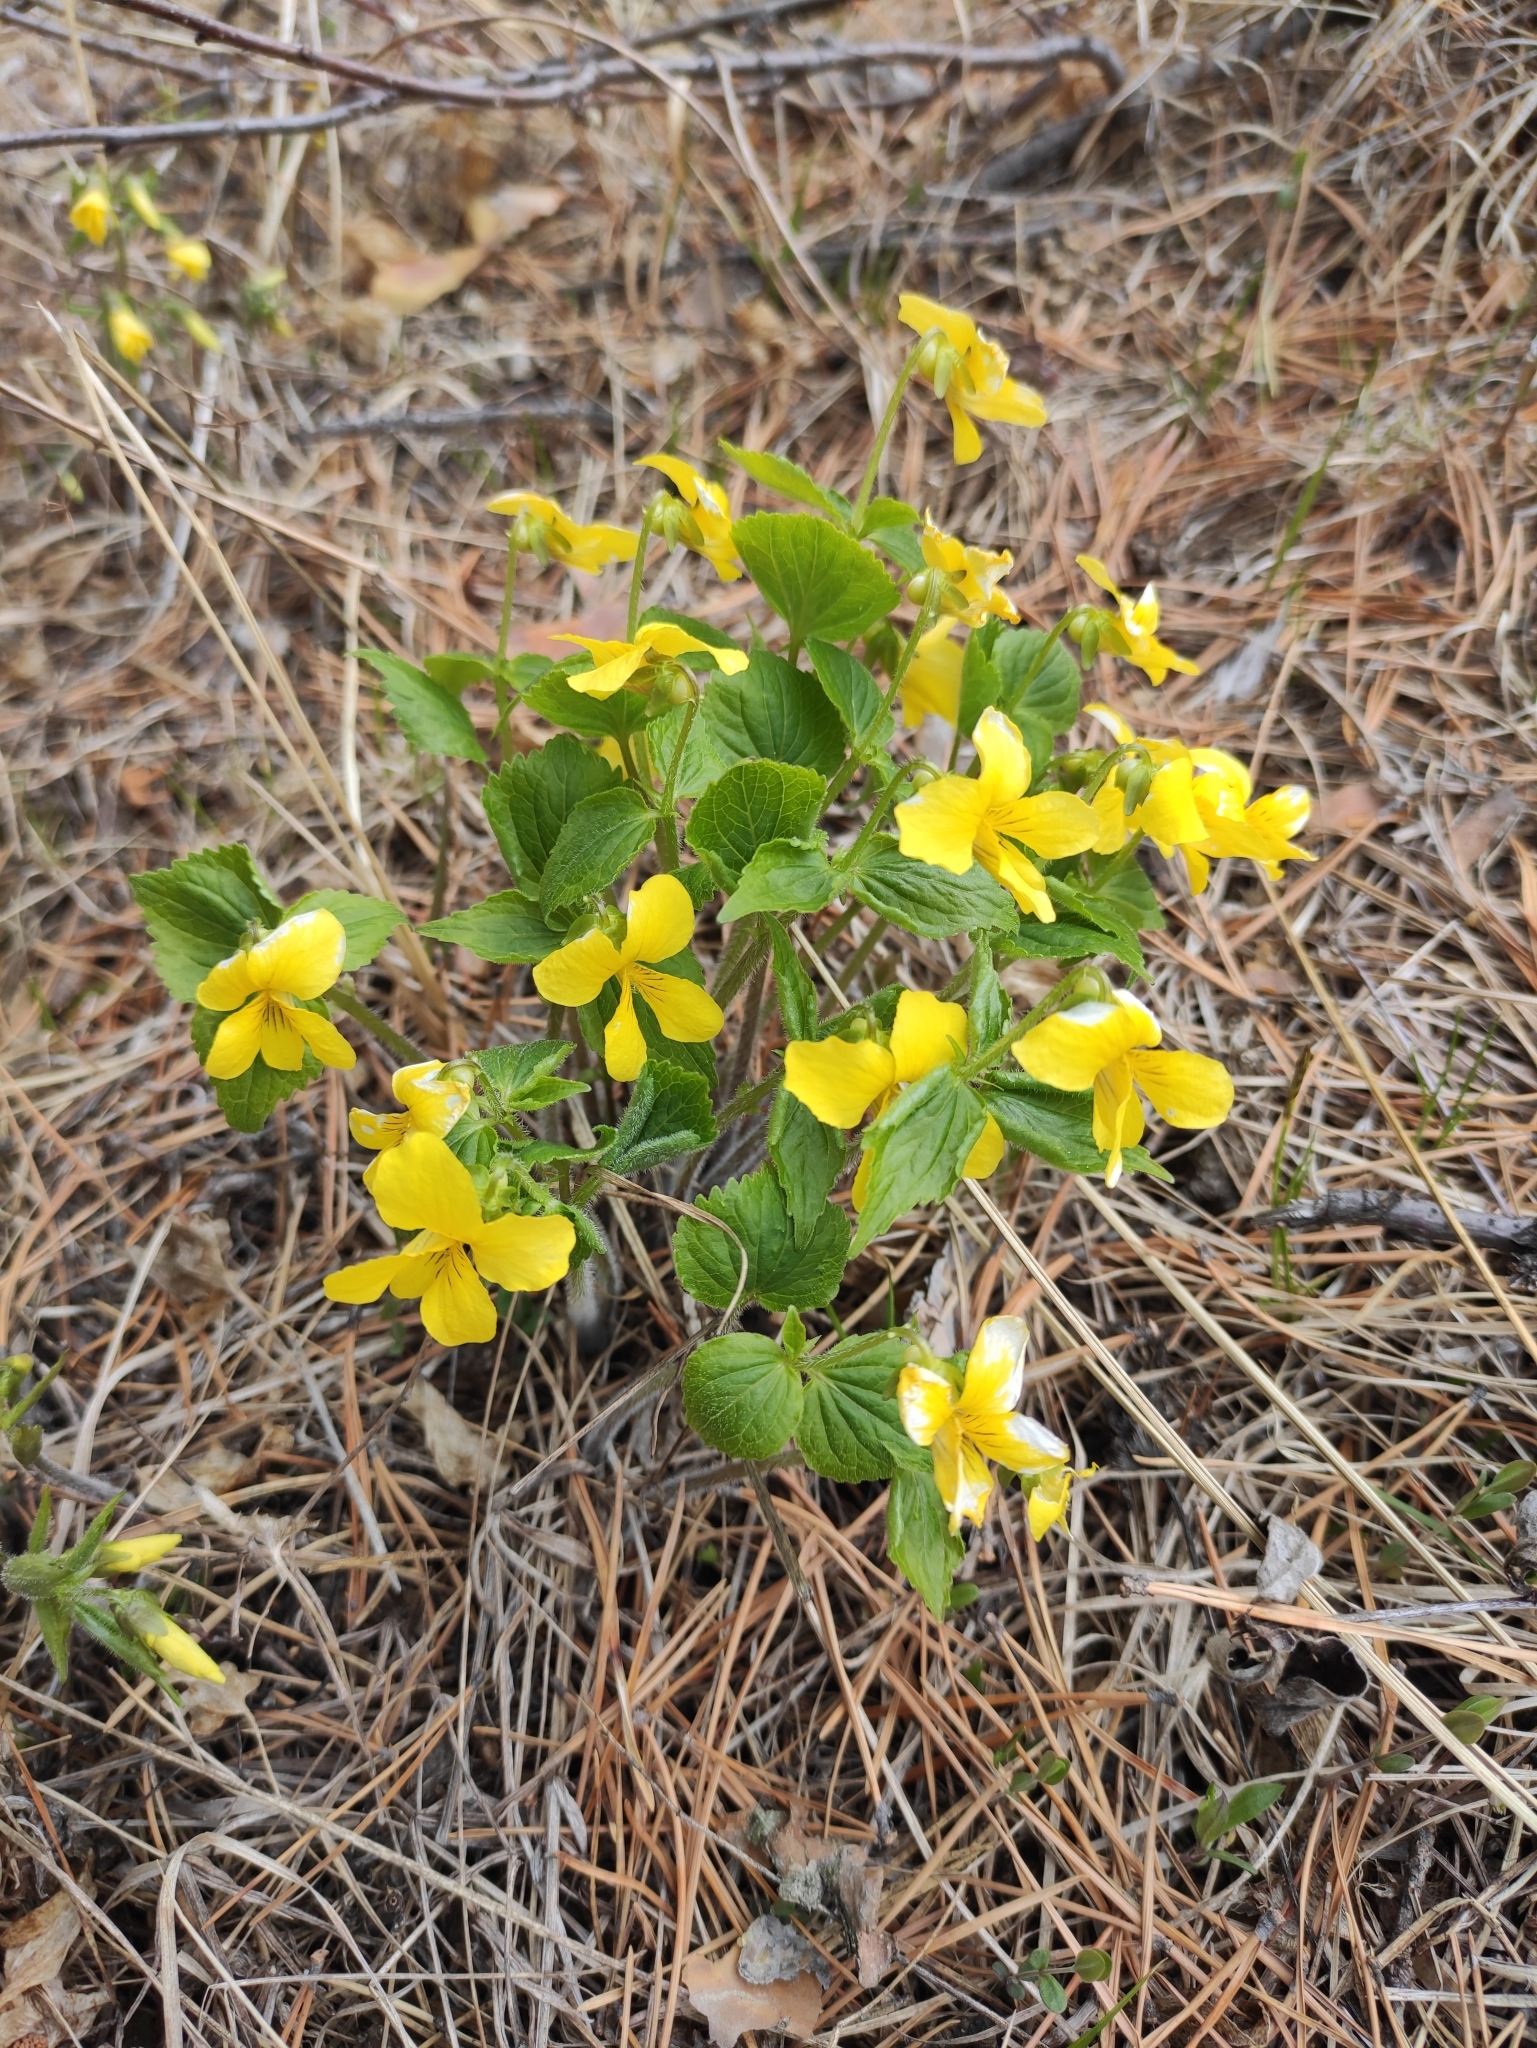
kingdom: Plantae
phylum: Tracheophyta
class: Magnoliopsida
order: Malpighiales
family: Violaceae
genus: Viola
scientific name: Viola uniflora
